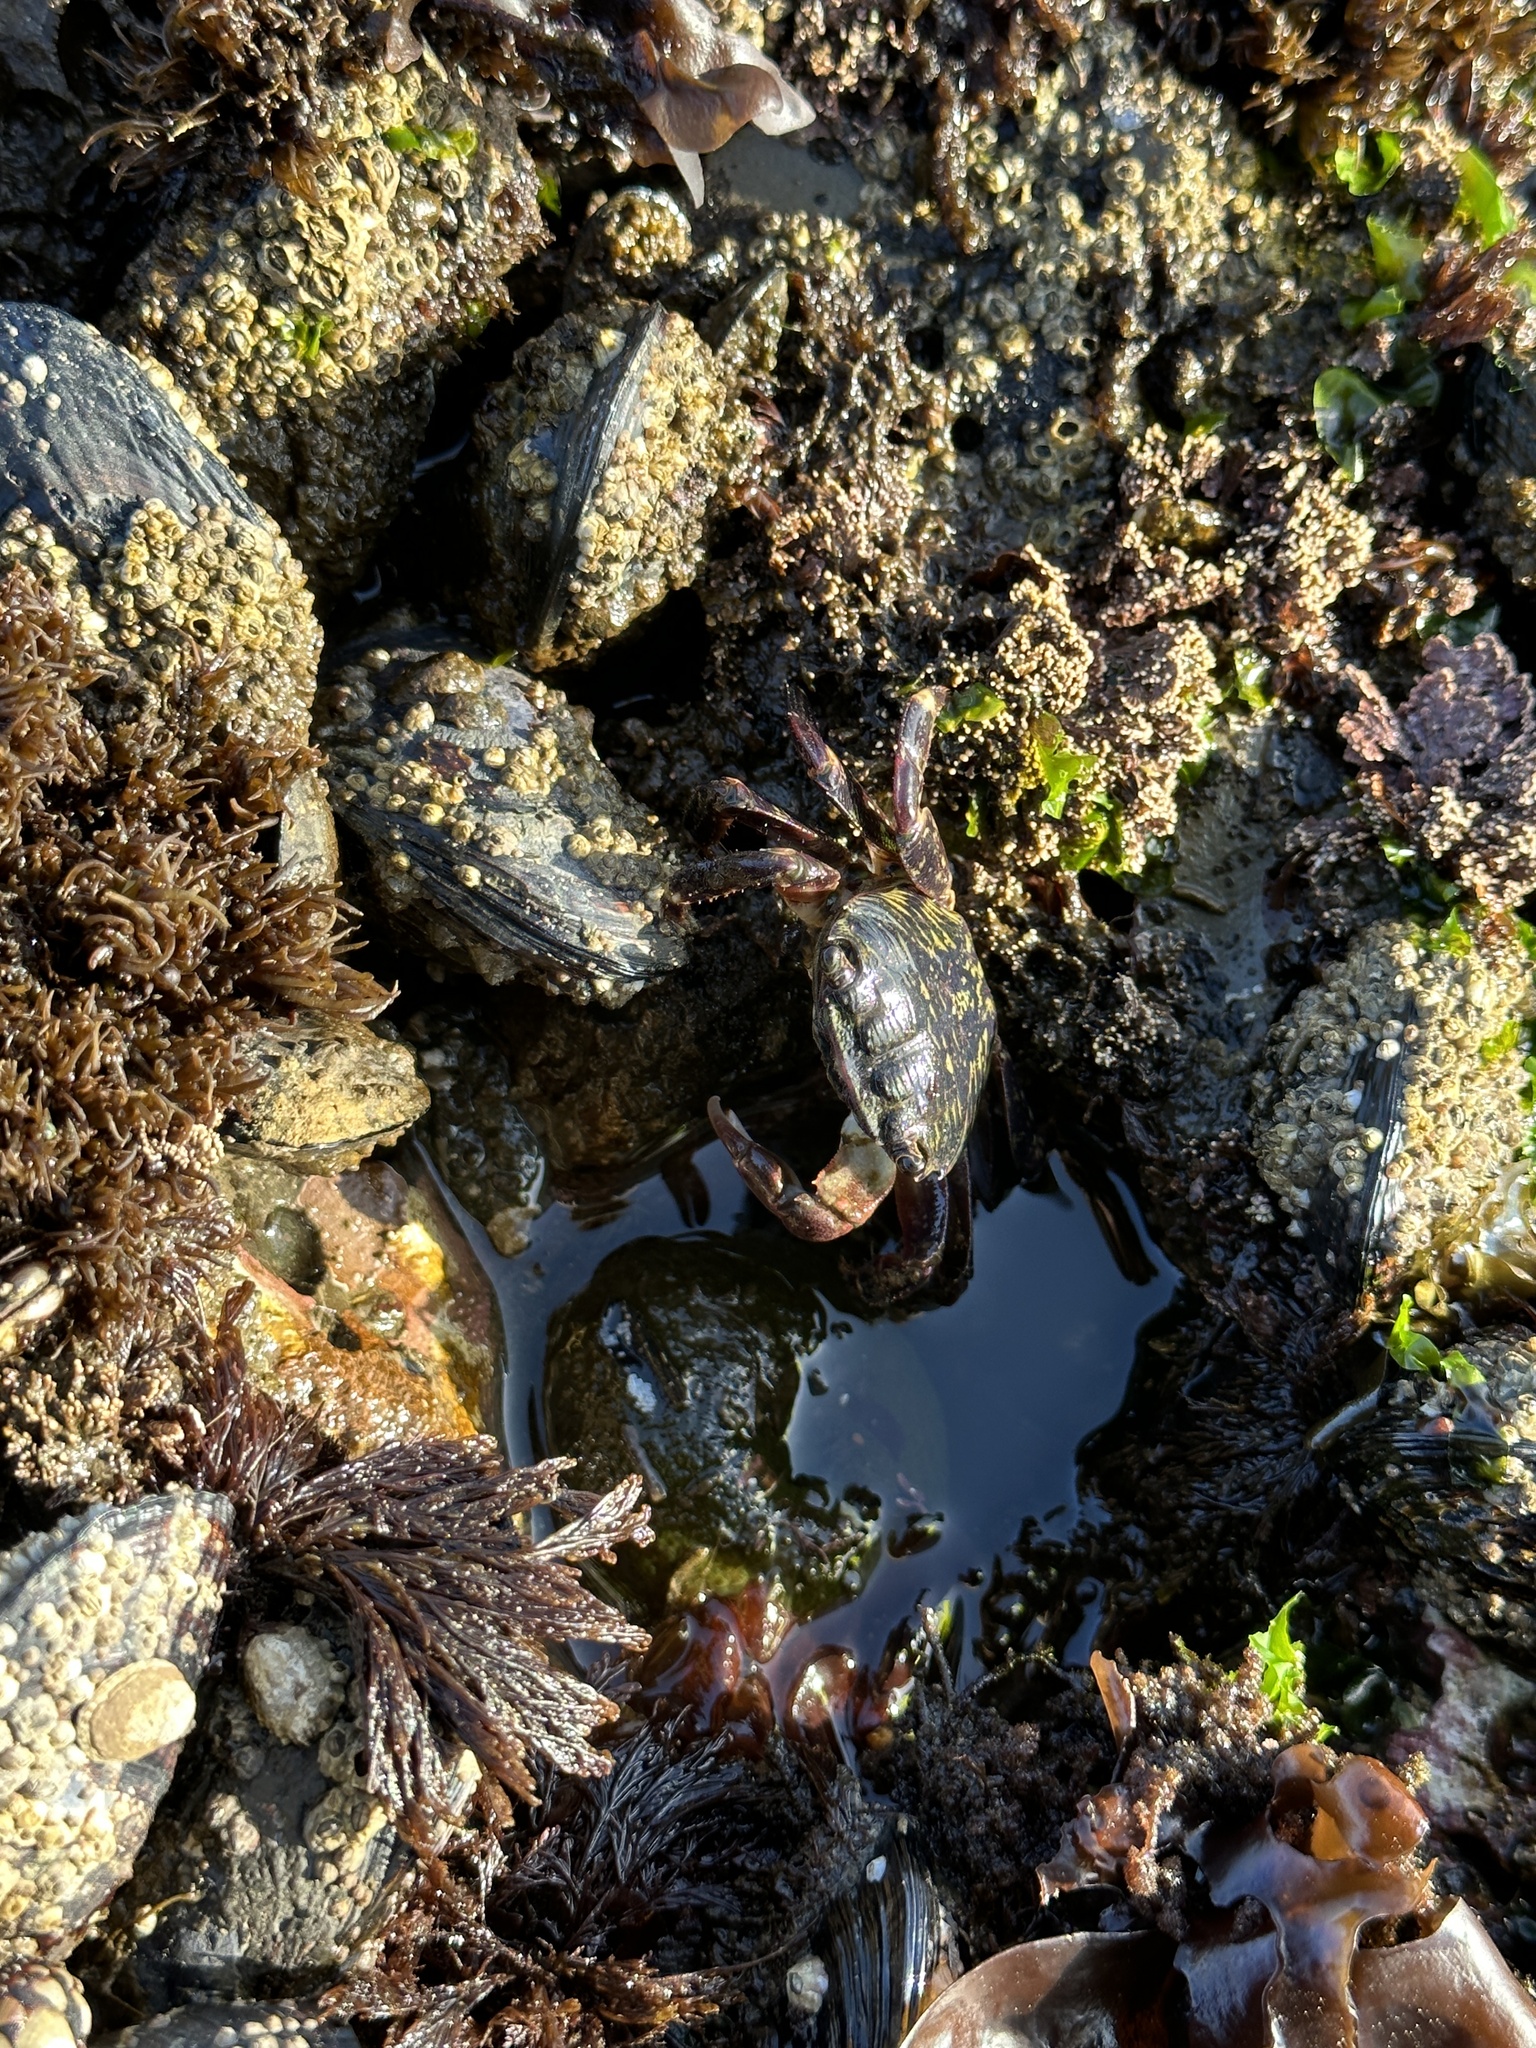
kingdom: Animalia
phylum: Arthropoda
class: Malacostraca
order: Decapoda
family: Grapsidae
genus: Pachygrapsus
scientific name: Pachygrapsus crassipes
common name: Striped shore crab
